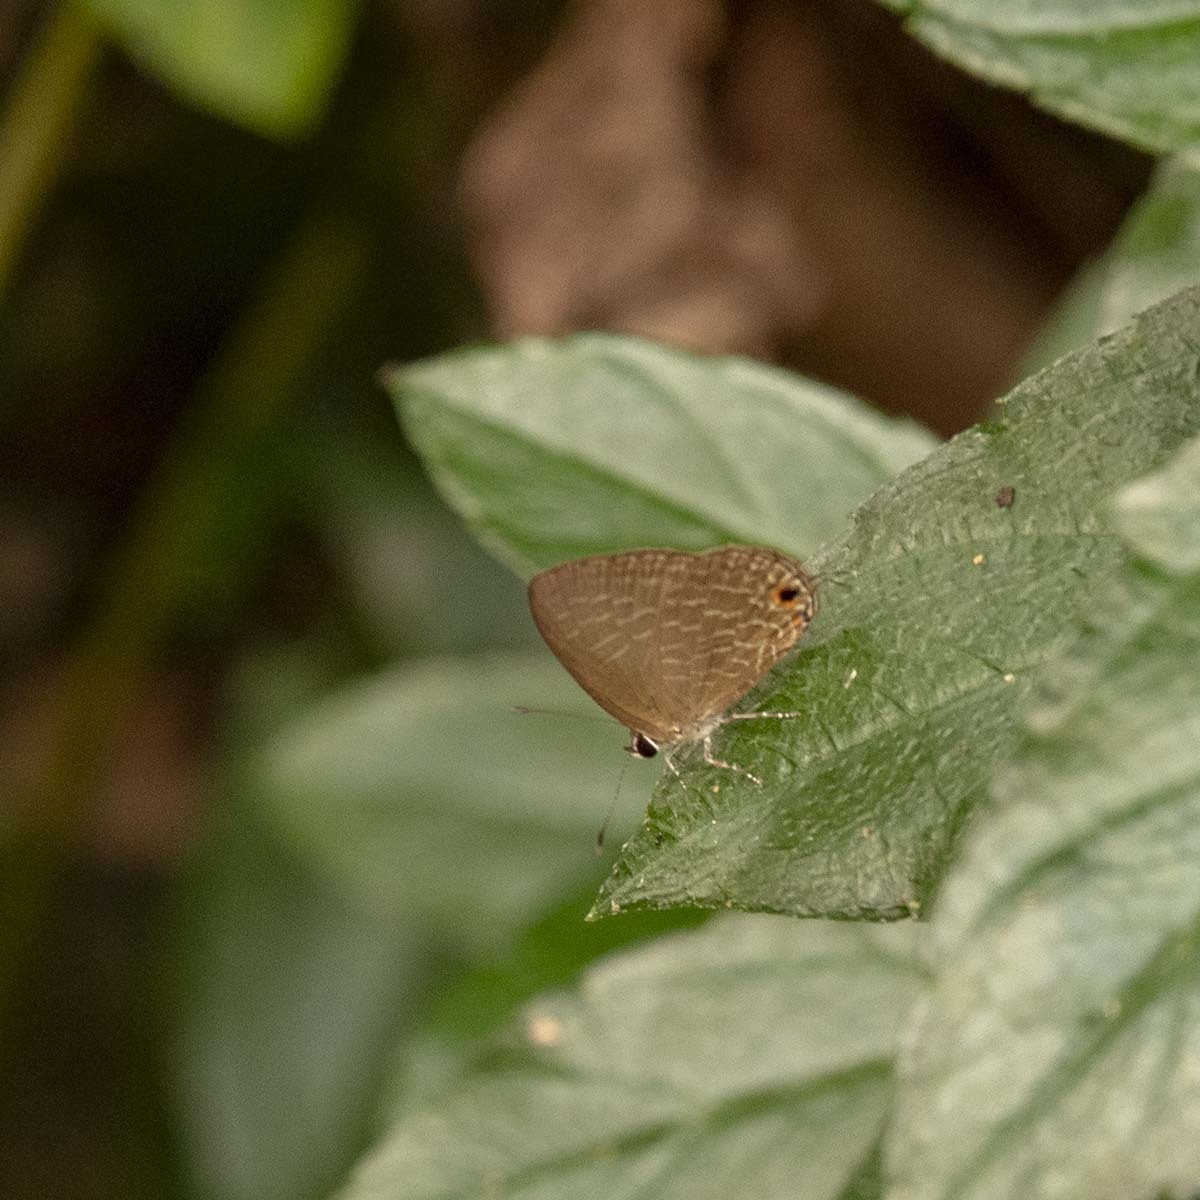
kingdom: Animalia
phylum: Arthropoda
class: Insecta
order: Lepidoptera
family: Lycaenidae
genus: Jamides
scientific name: Jamides bochus
